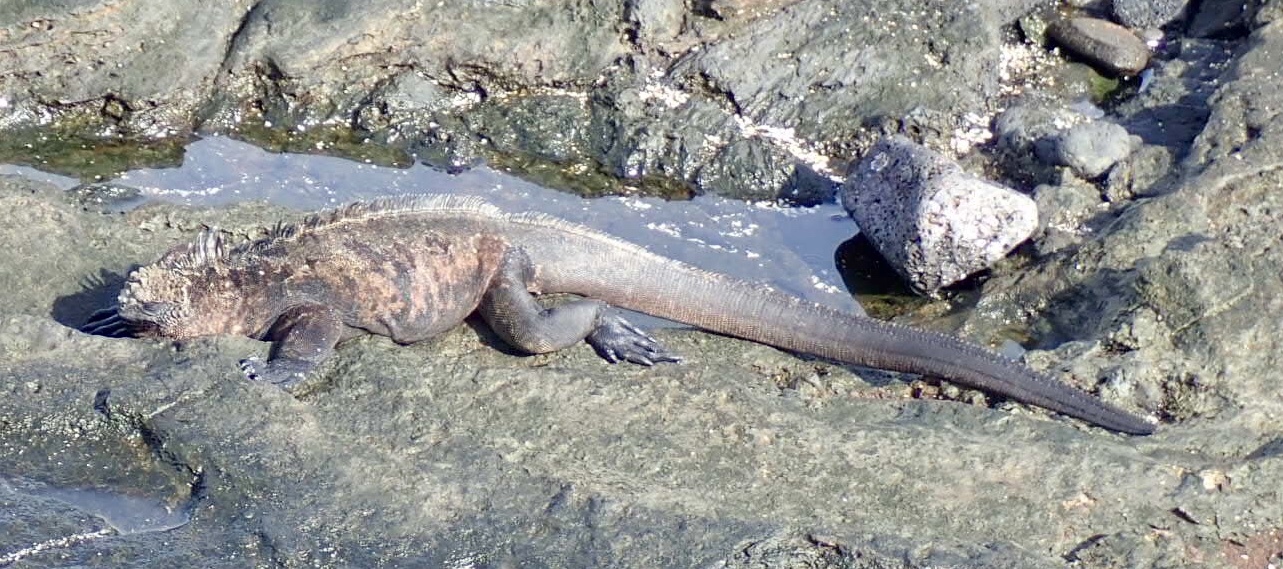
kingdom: Animalia
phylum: Chordata
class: Squamata
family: Iguanidae
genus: Amblyrhynchus
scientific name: Amblyrhynchus cristatus
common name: Marine iguana
